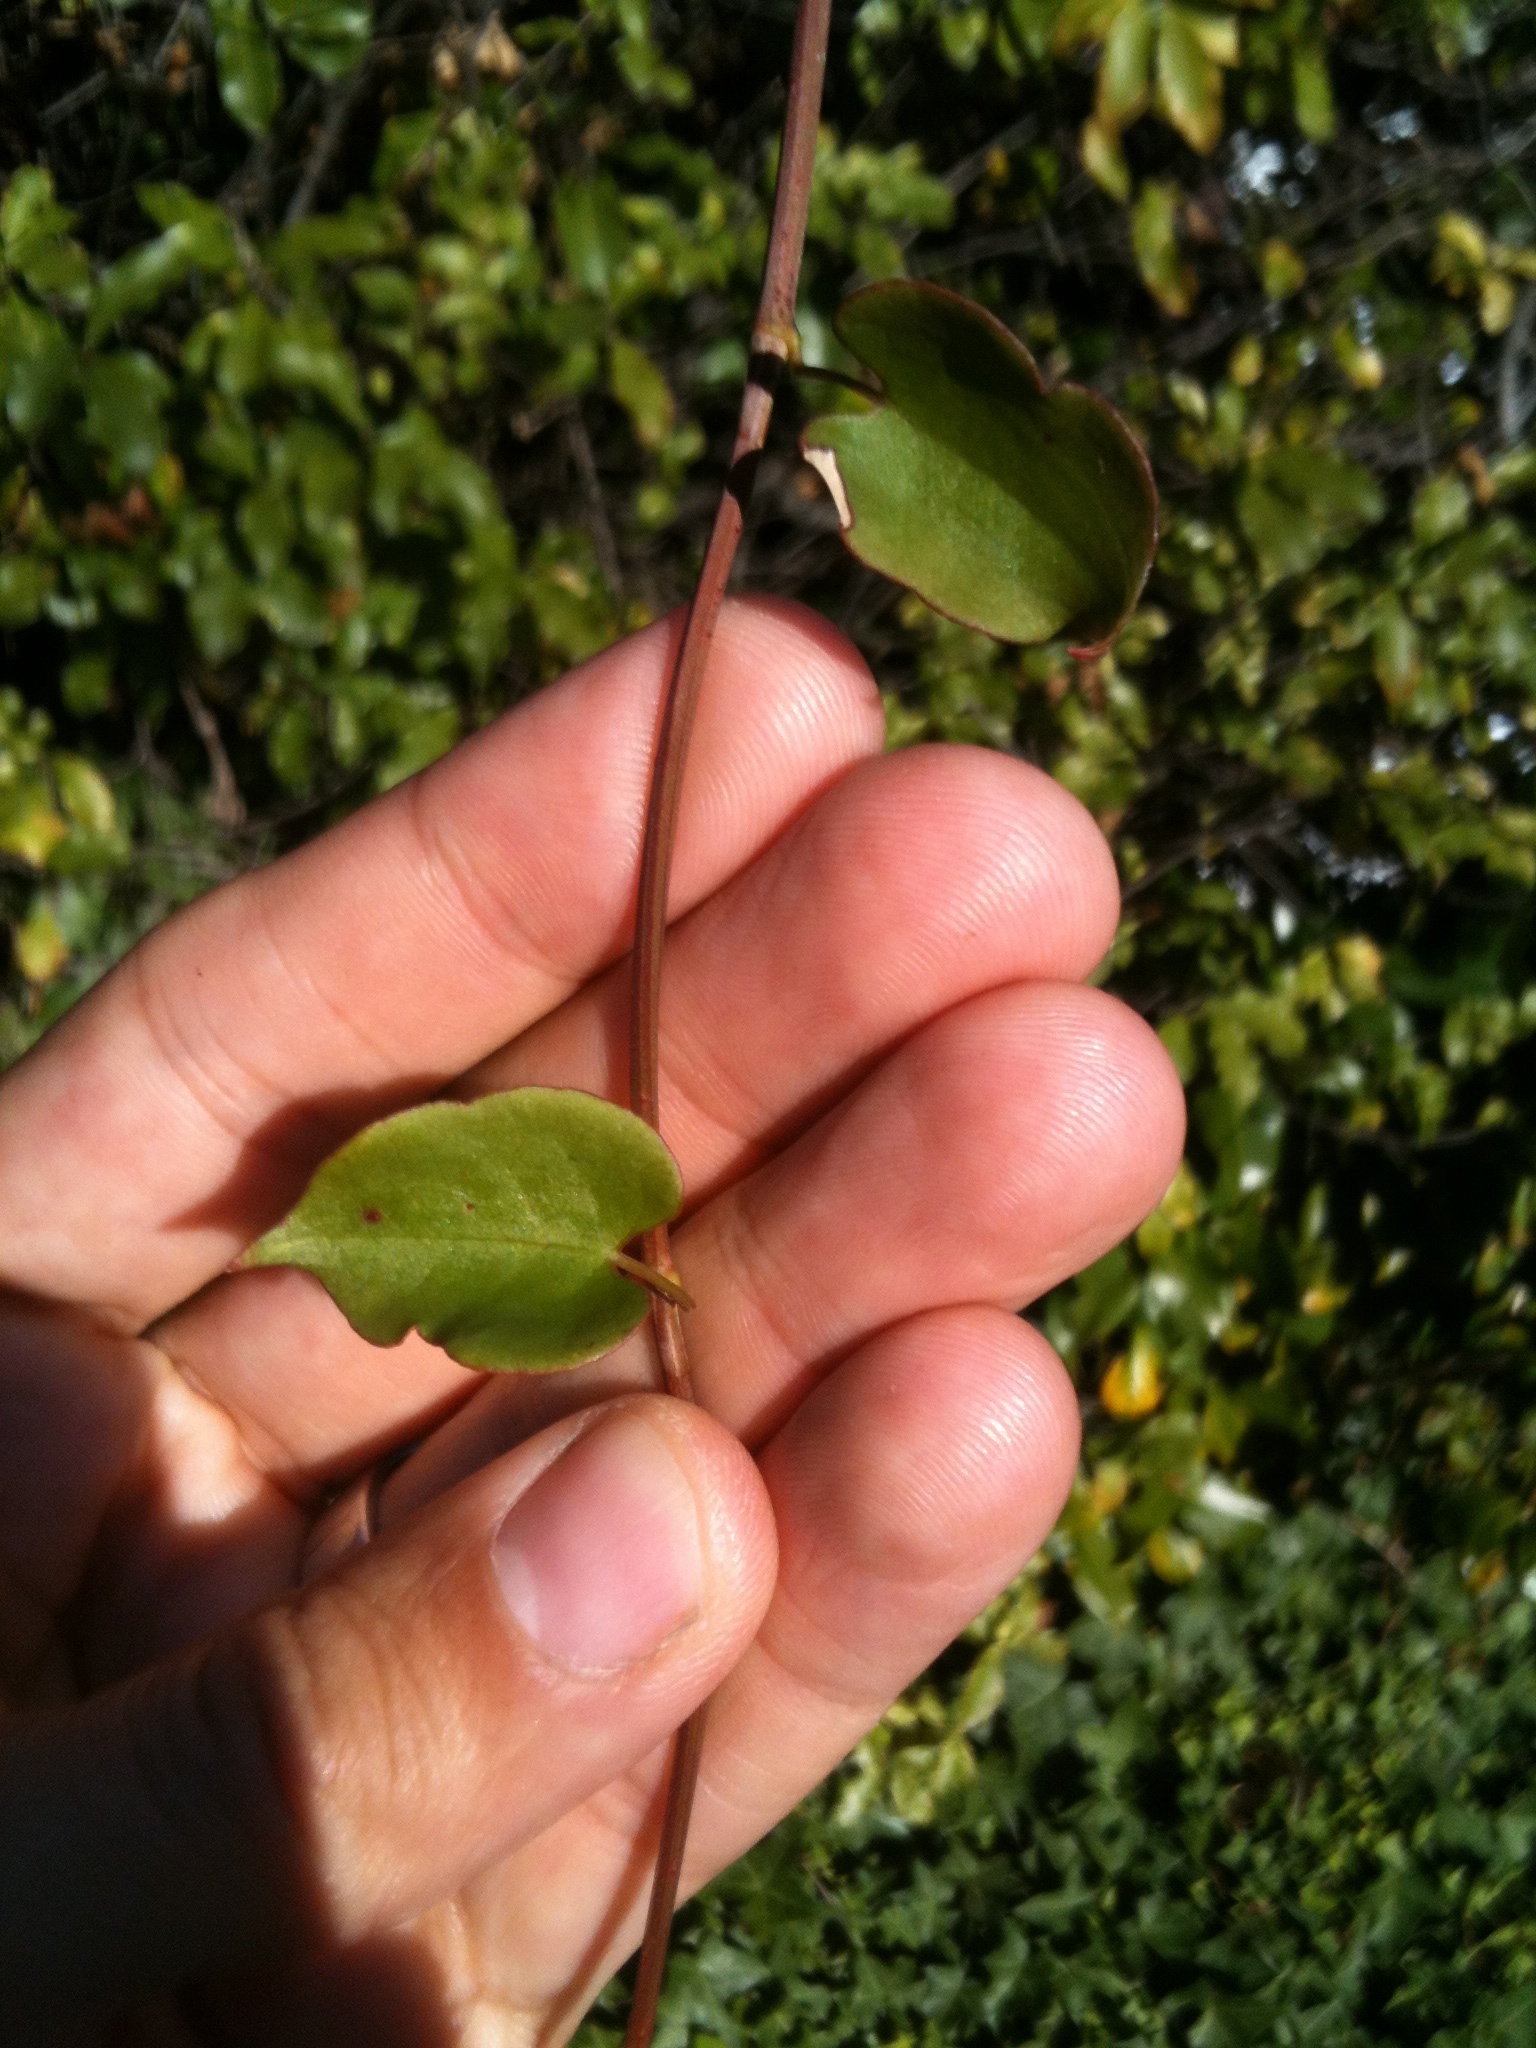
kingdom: Plantae
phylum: Tracheophyta
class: Magnoliopsida
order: Caryophyllales
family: Polygonaceae
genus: Muehlenbeckia
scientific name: Muehlenbeckia australis
